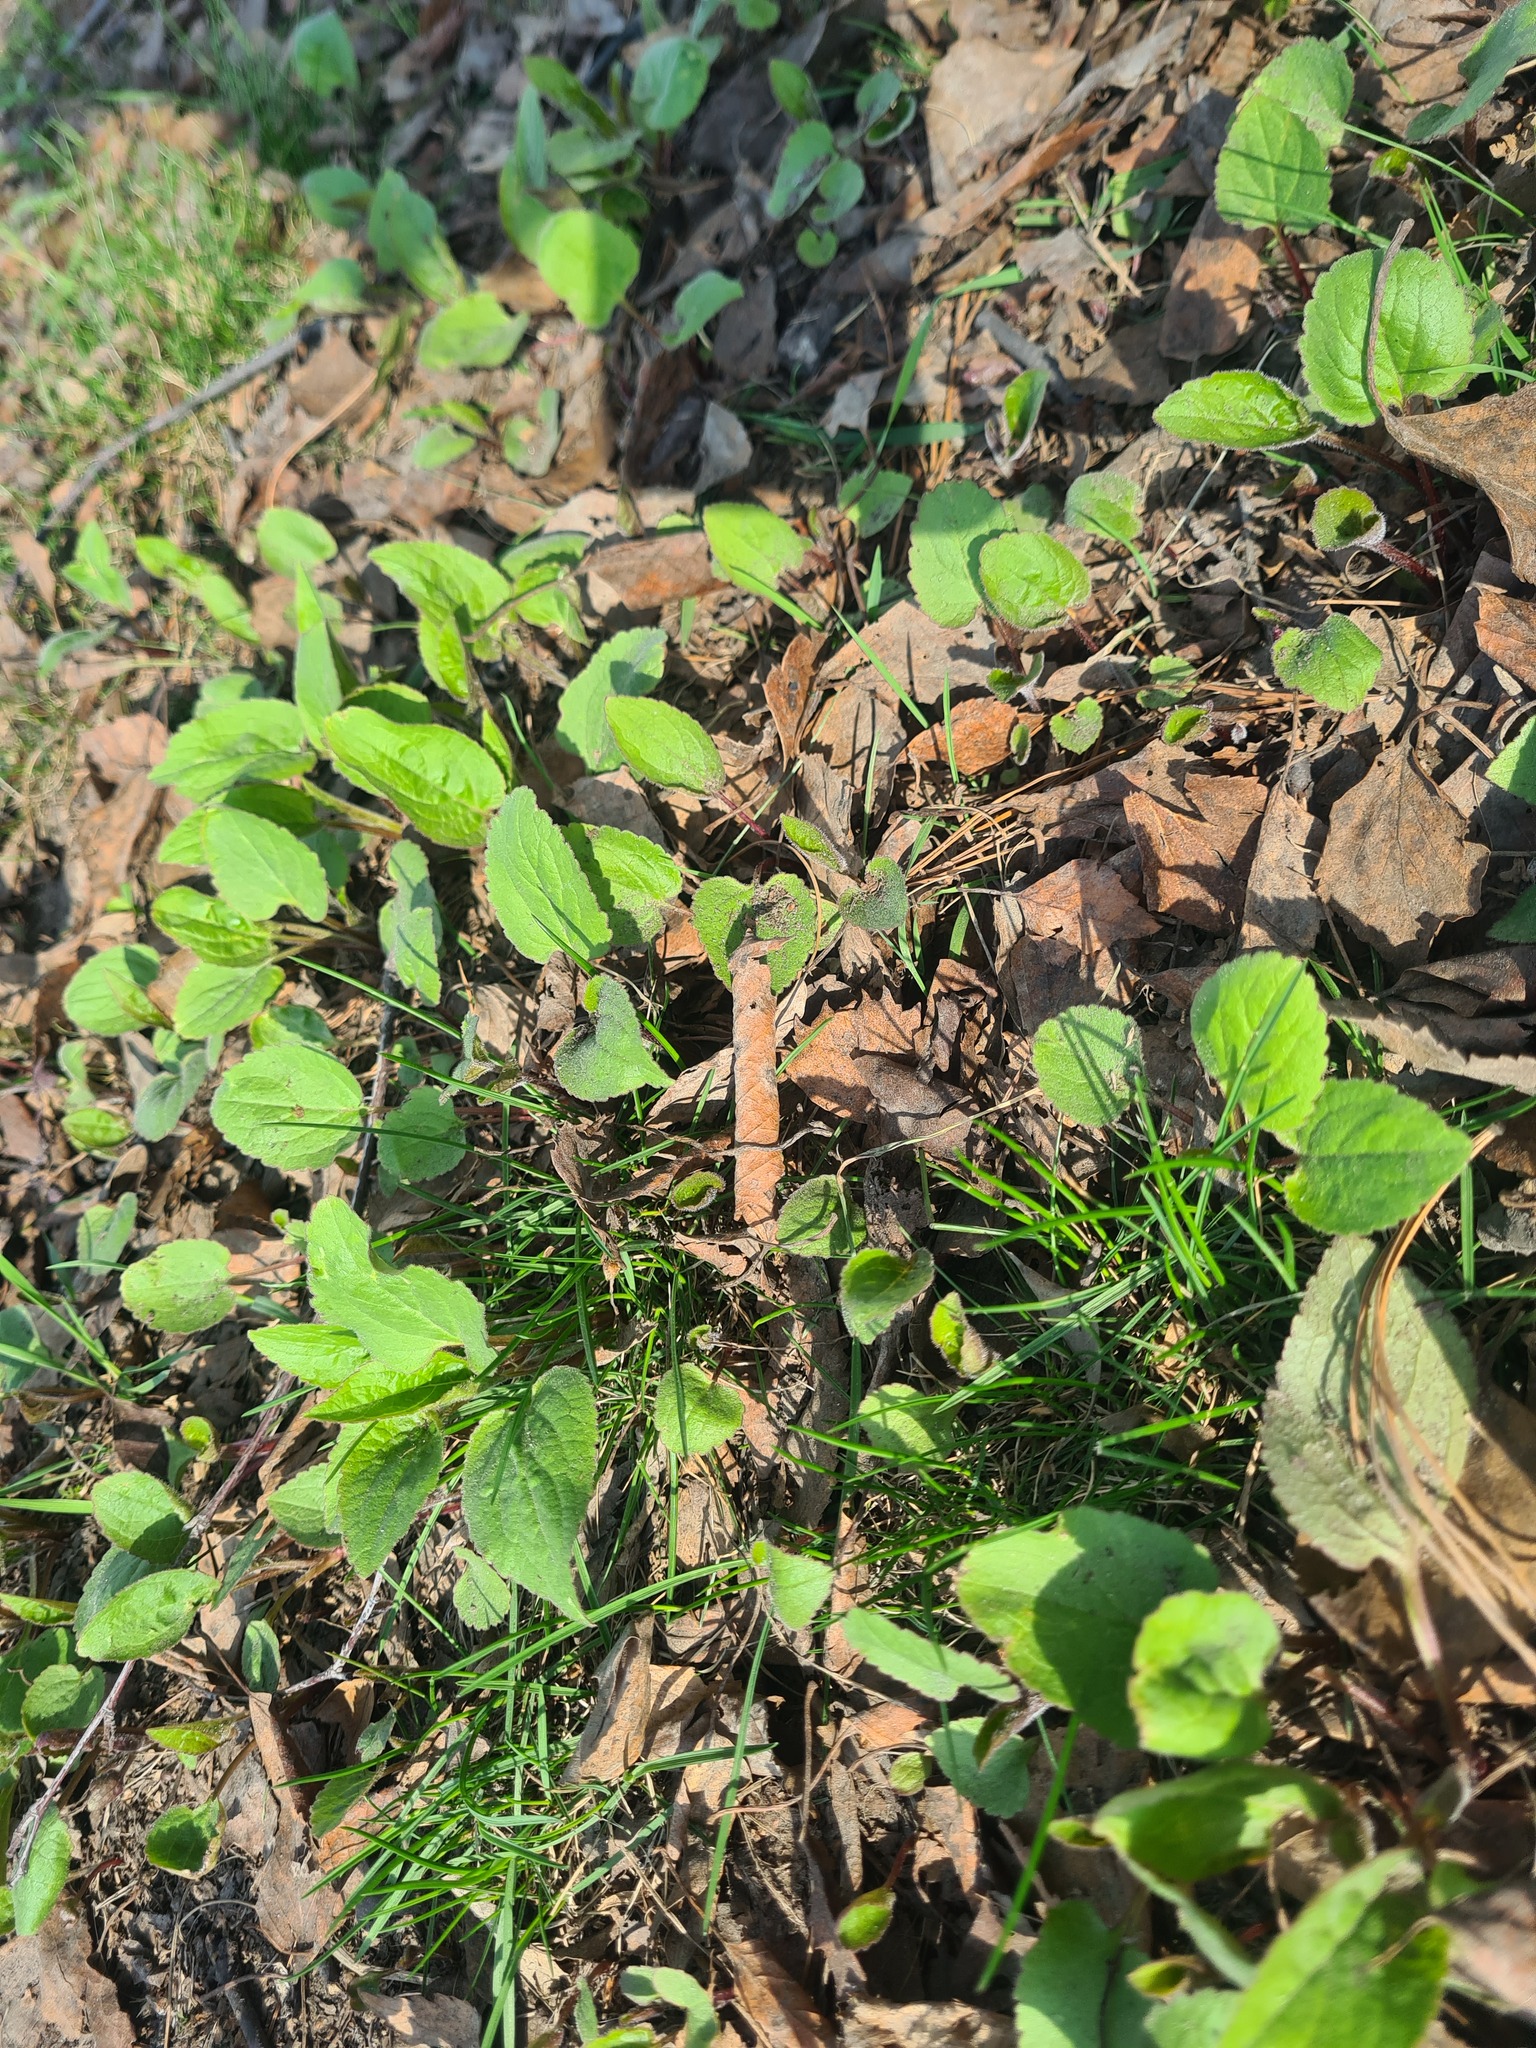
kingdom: Plantae
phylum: Tracheophyta
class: Magnoliopsida
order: Asterales
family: Campanulaceae
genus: Campanula
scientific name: Campanula rapunculoides
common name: Creeping bellflower
